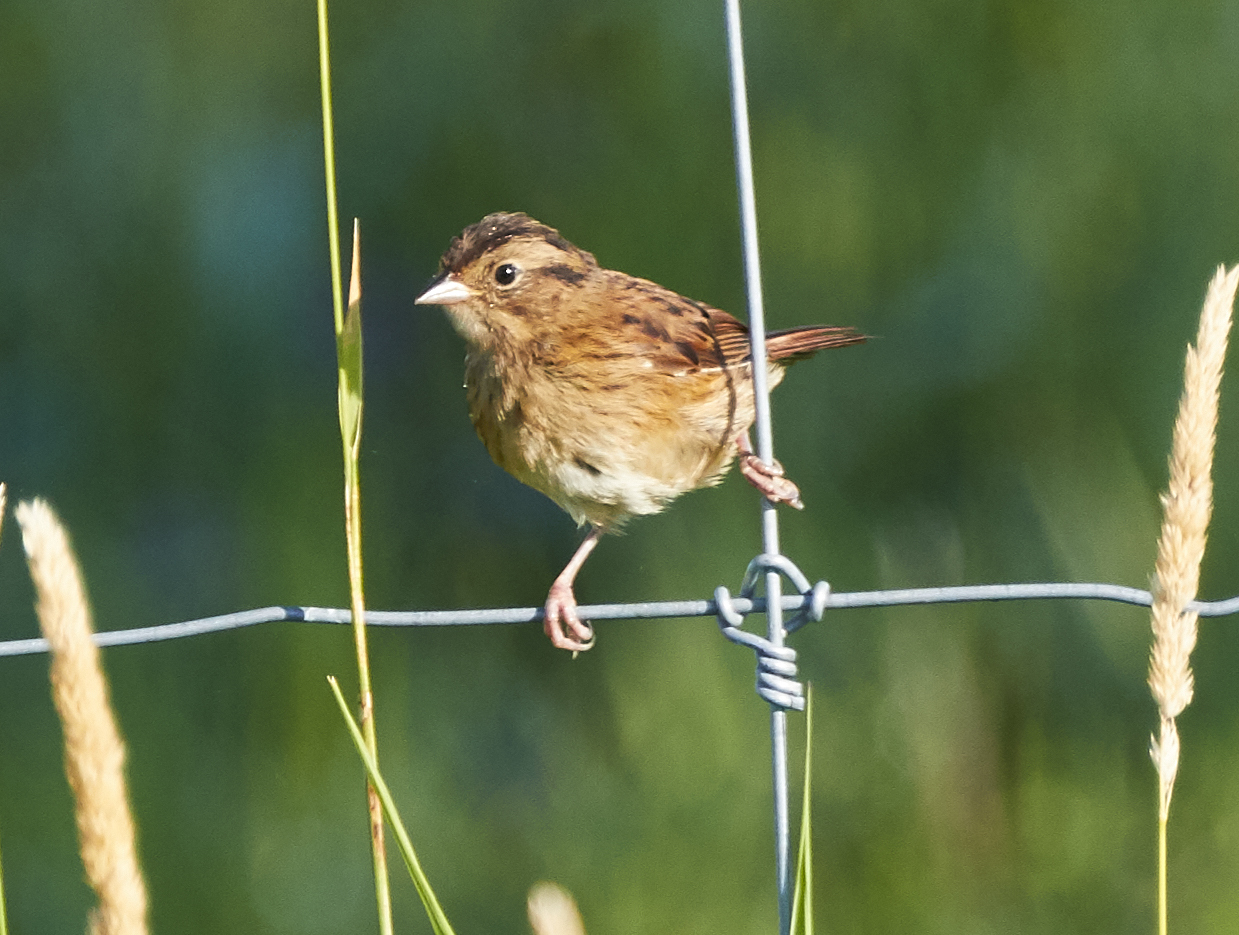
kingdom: Animalia
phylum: Chordata
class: Aves
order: Passeriformes
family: Passerellidae
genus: Melospiza
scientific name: Melospiza georgiana
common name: Swamp sparrow
